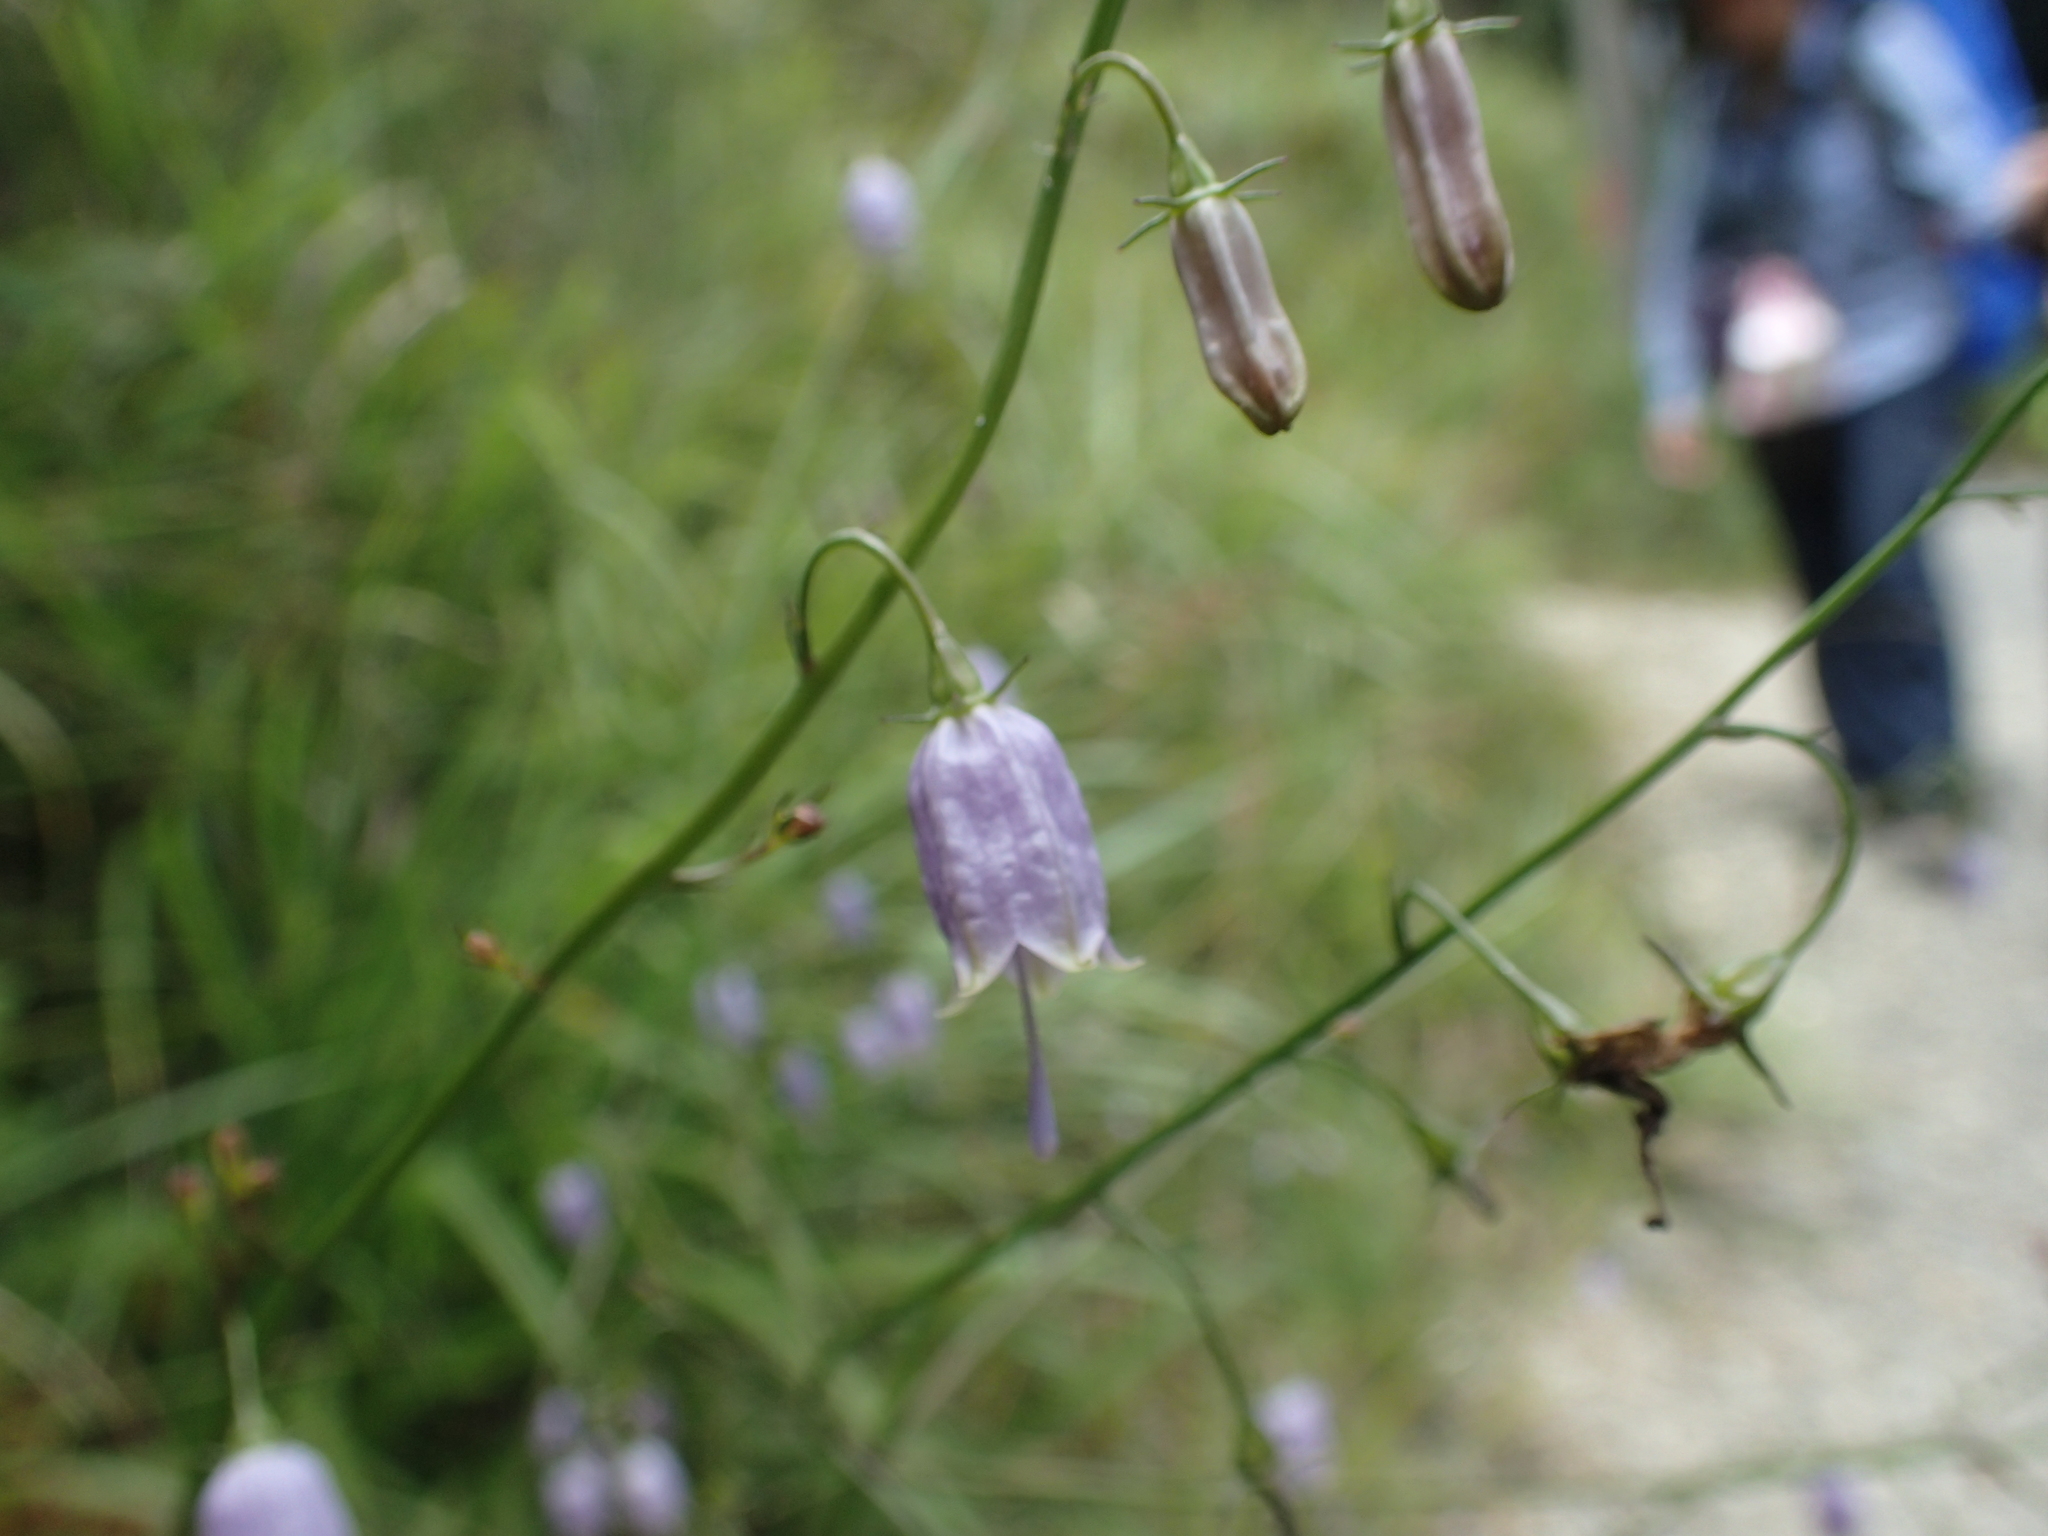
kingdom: Plantae
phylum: Tracheophyta
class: Magnoliopsida
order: Asterales
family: Campanulaceae
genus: Adenophora
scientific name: Adenophora triphylla
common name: Giant-bellflower
